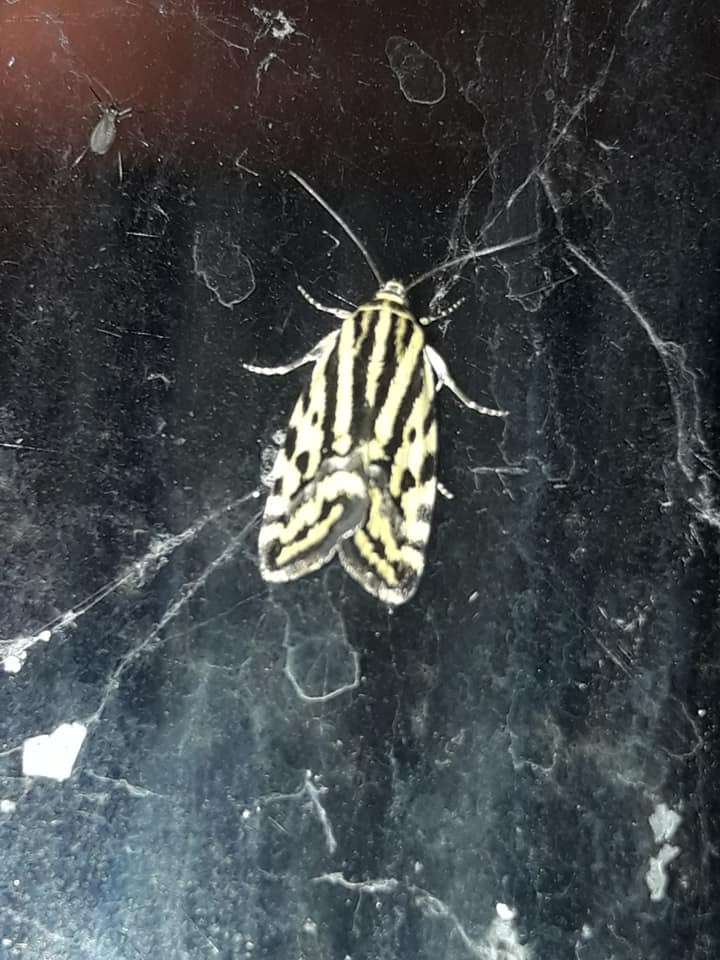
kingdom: Animalia
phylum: Arthropoda
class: Insecta
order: Lepidoptera
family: Noctuidae
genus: Acontia
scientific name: Acontia trabealis
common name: Spotted sulphur
